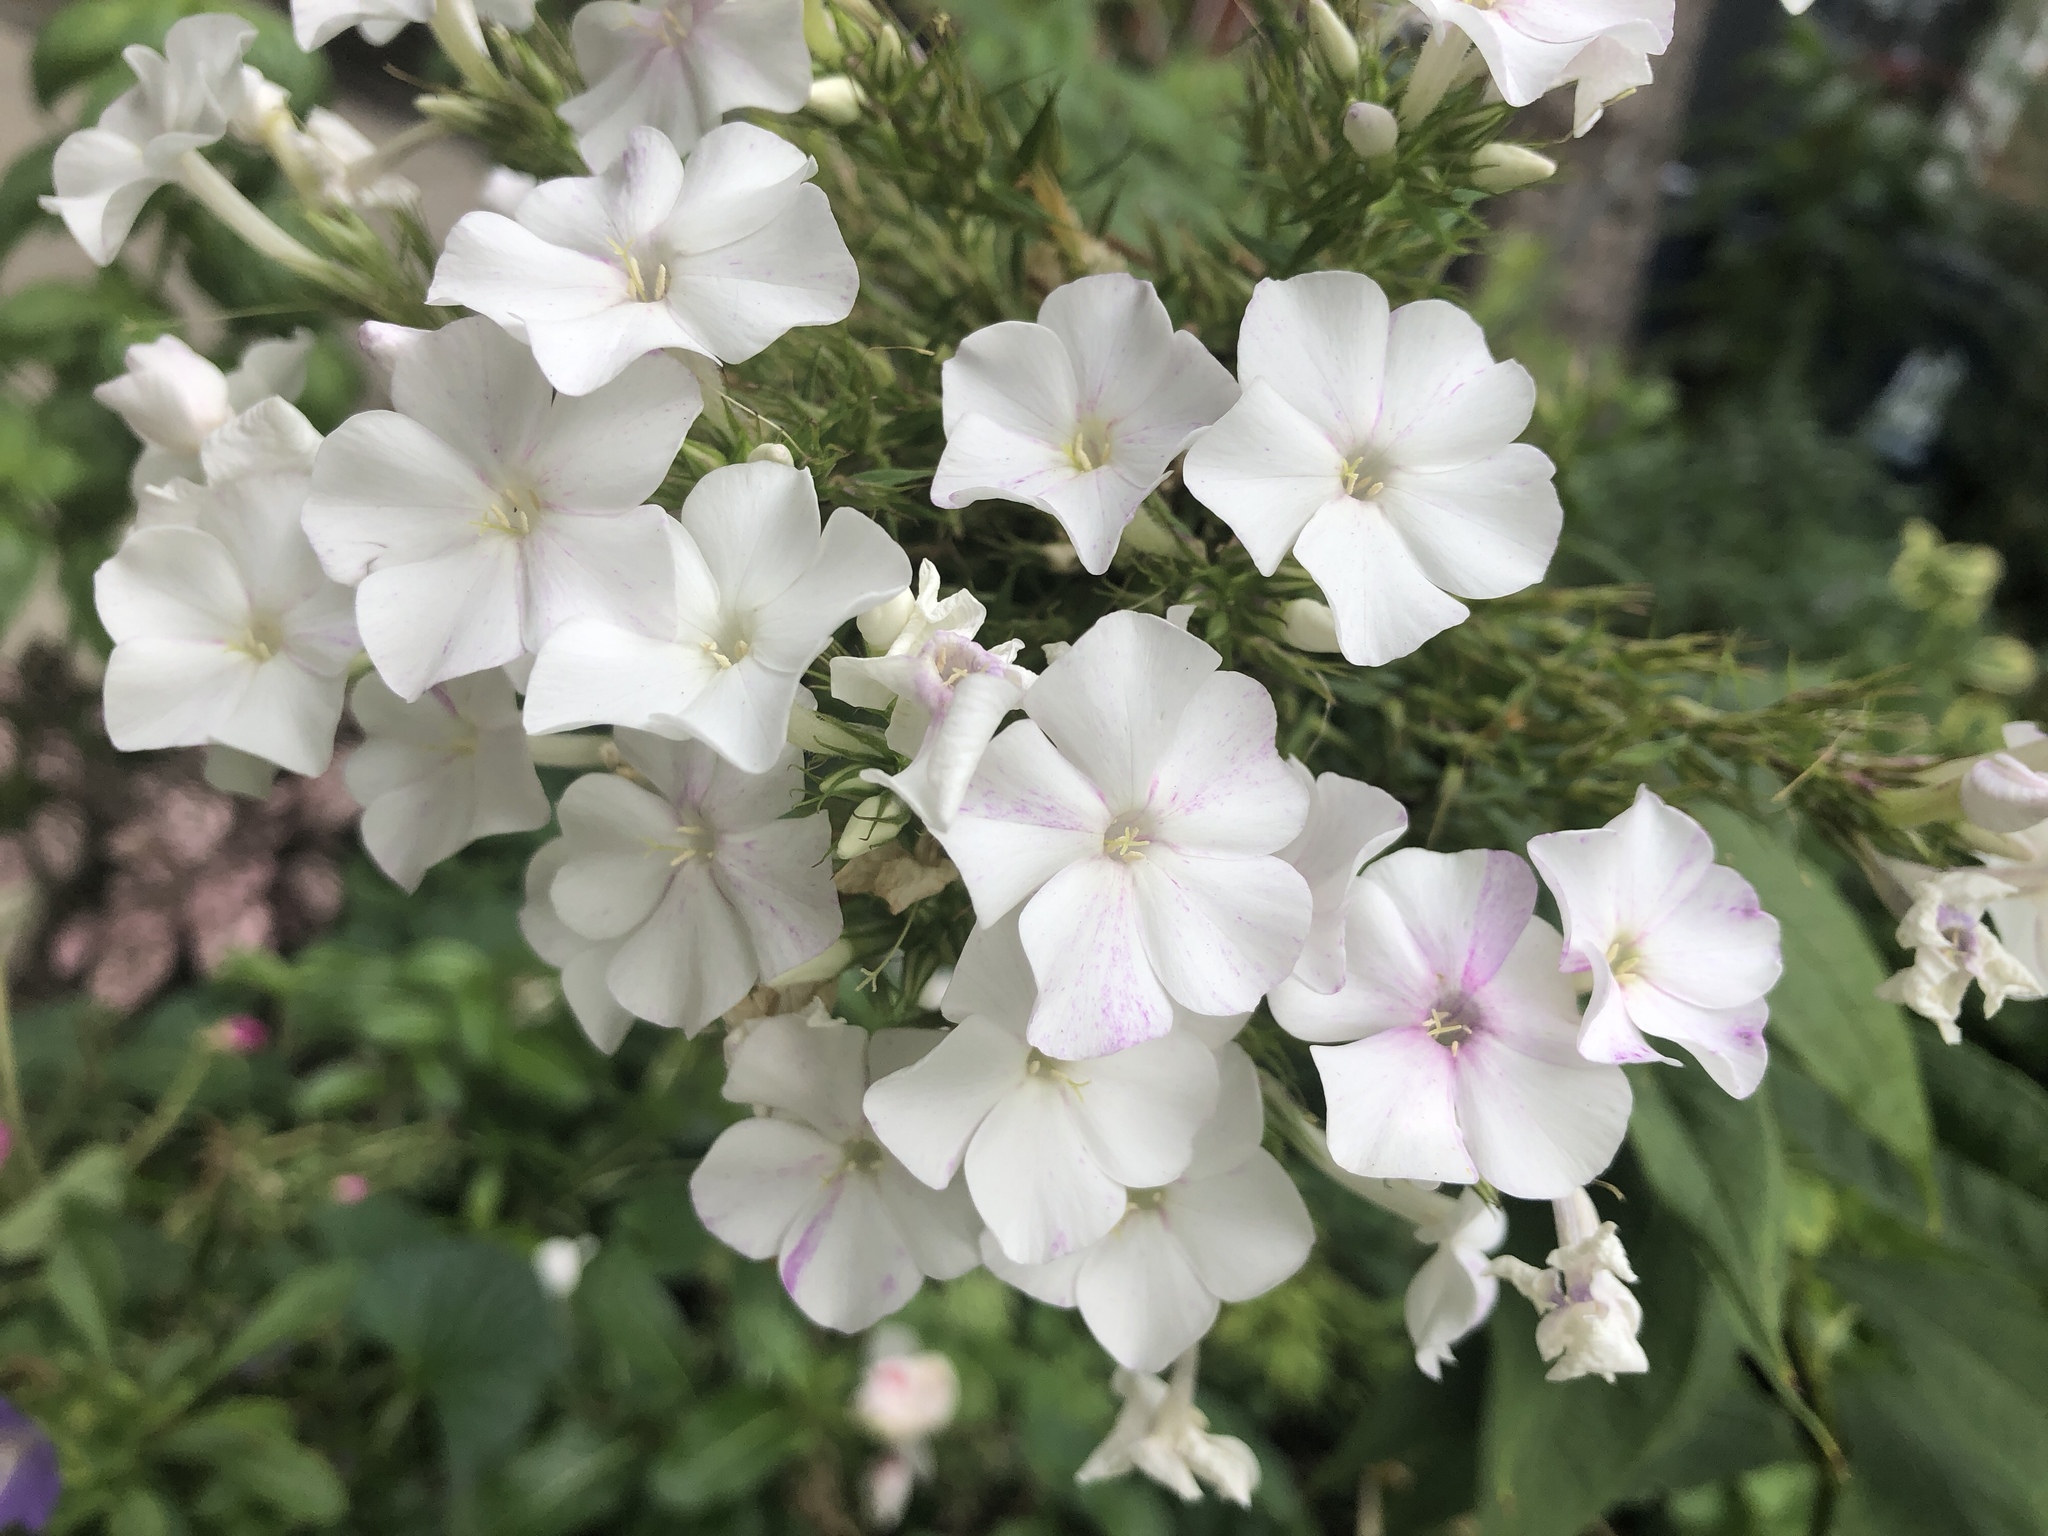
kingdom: Plantae
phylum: Tracheophyta
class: Magnoliopsida
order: Ericales
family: Polemoniaceae
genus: Phlox
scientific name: Phlox paniculata
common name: Fall phlox
